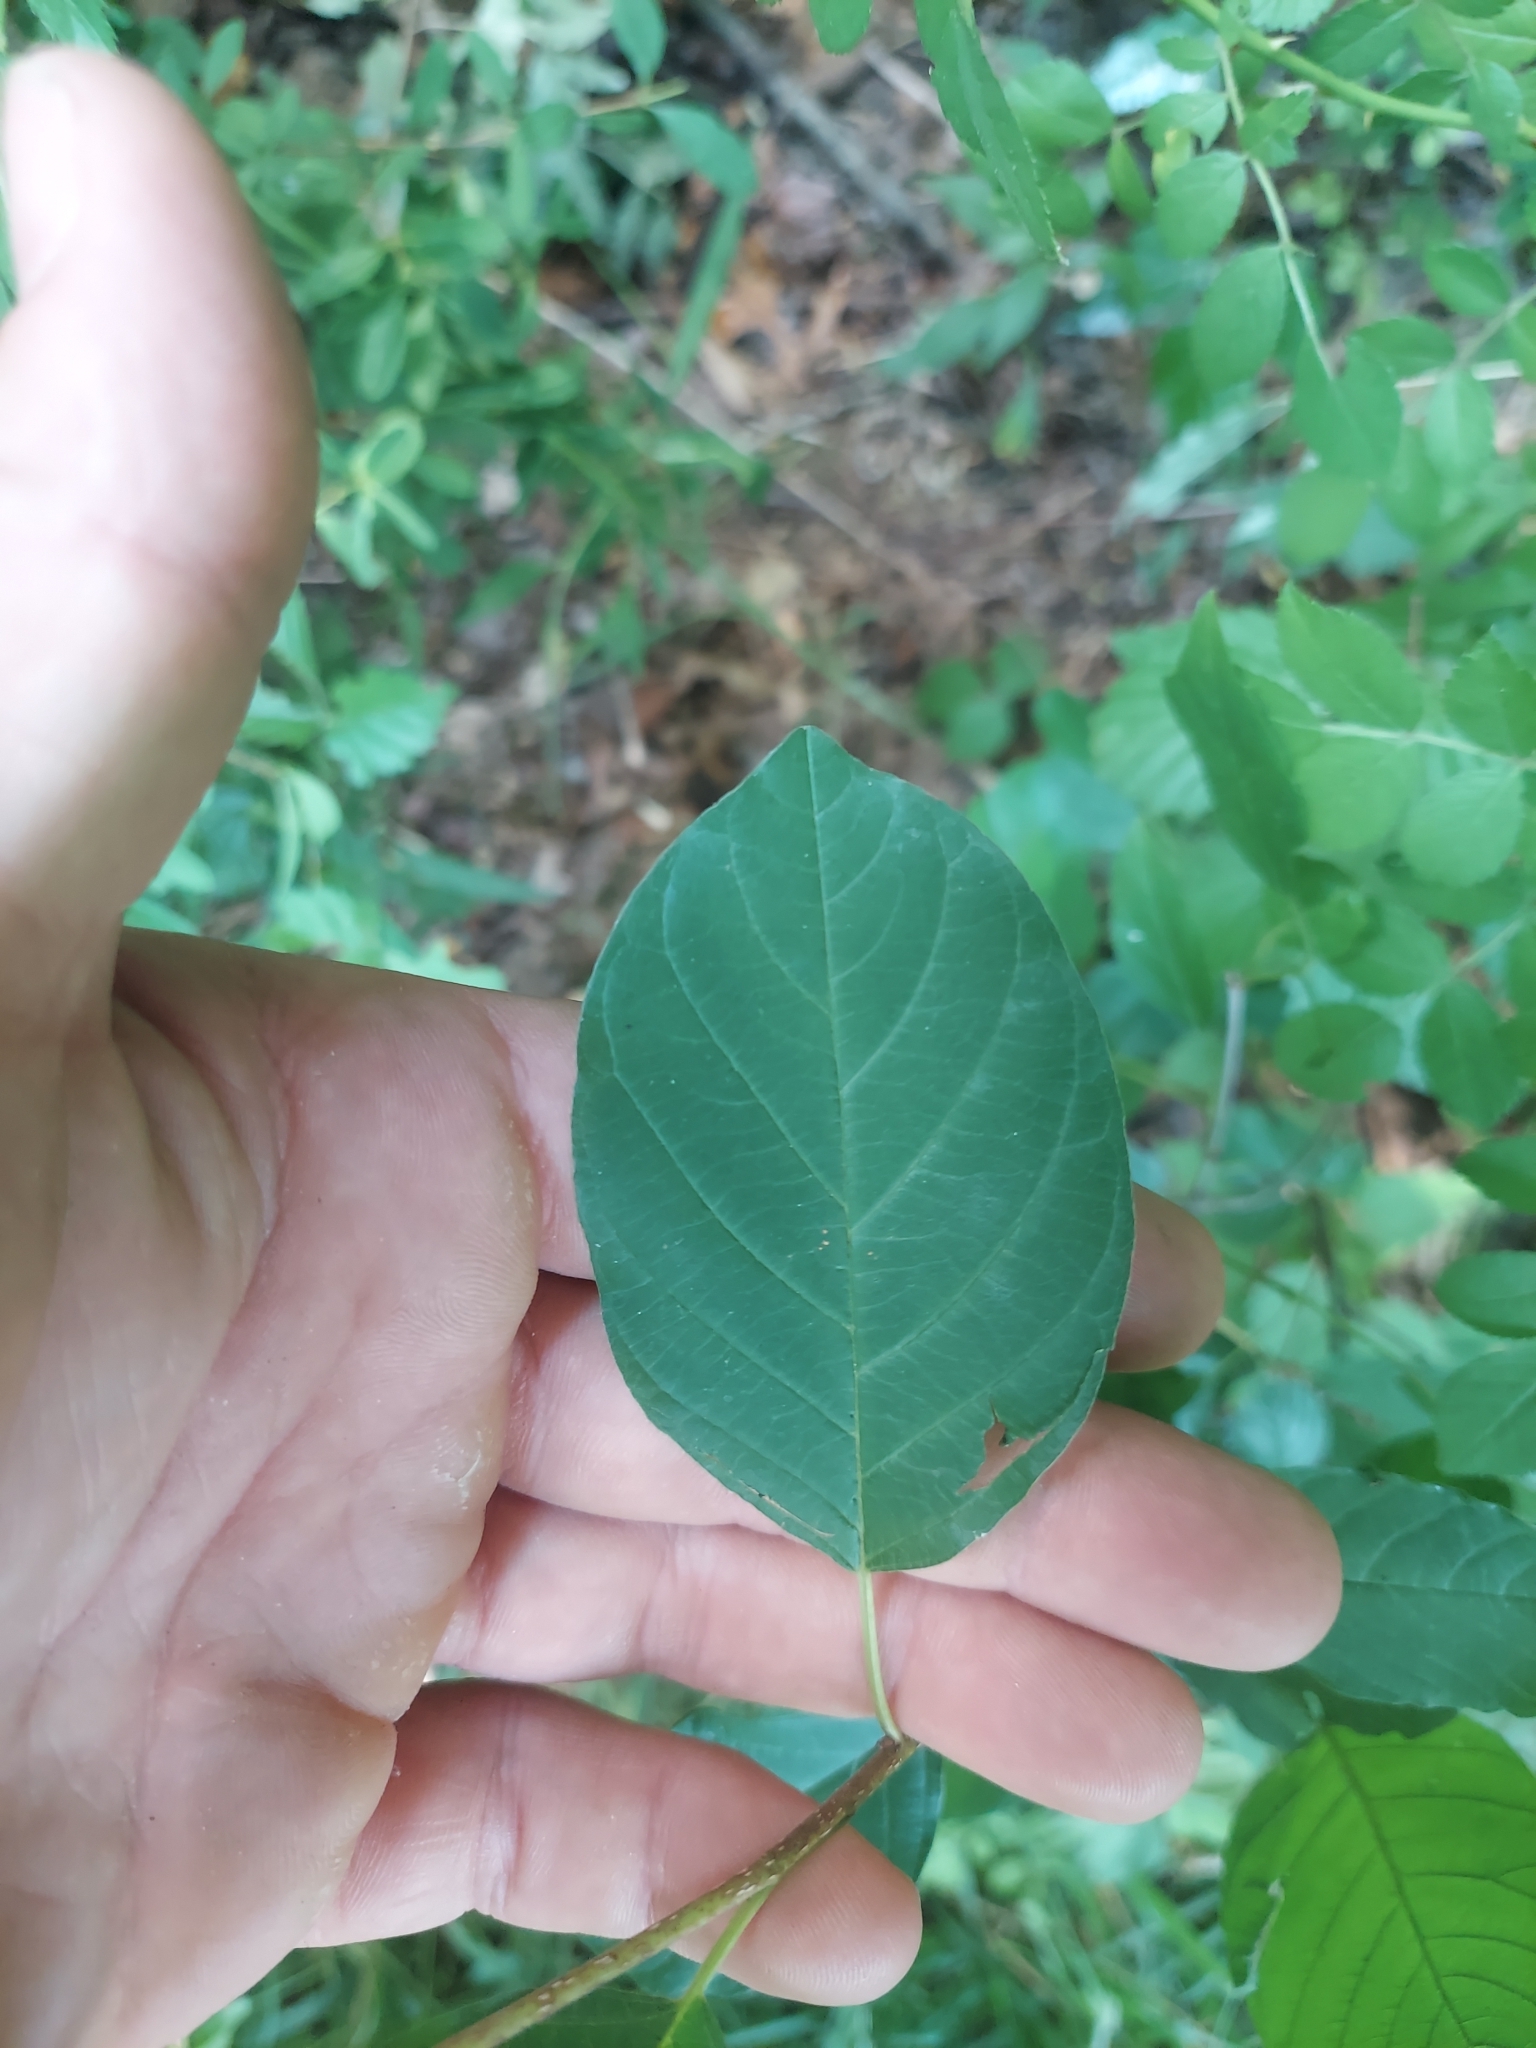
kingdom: Plantae
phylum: Tracheophyta
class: Magnoliopsida
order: Rosales
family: Rhamnaceae
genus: Frangula
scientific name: Frangula alnus
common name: Alder buckthorn
